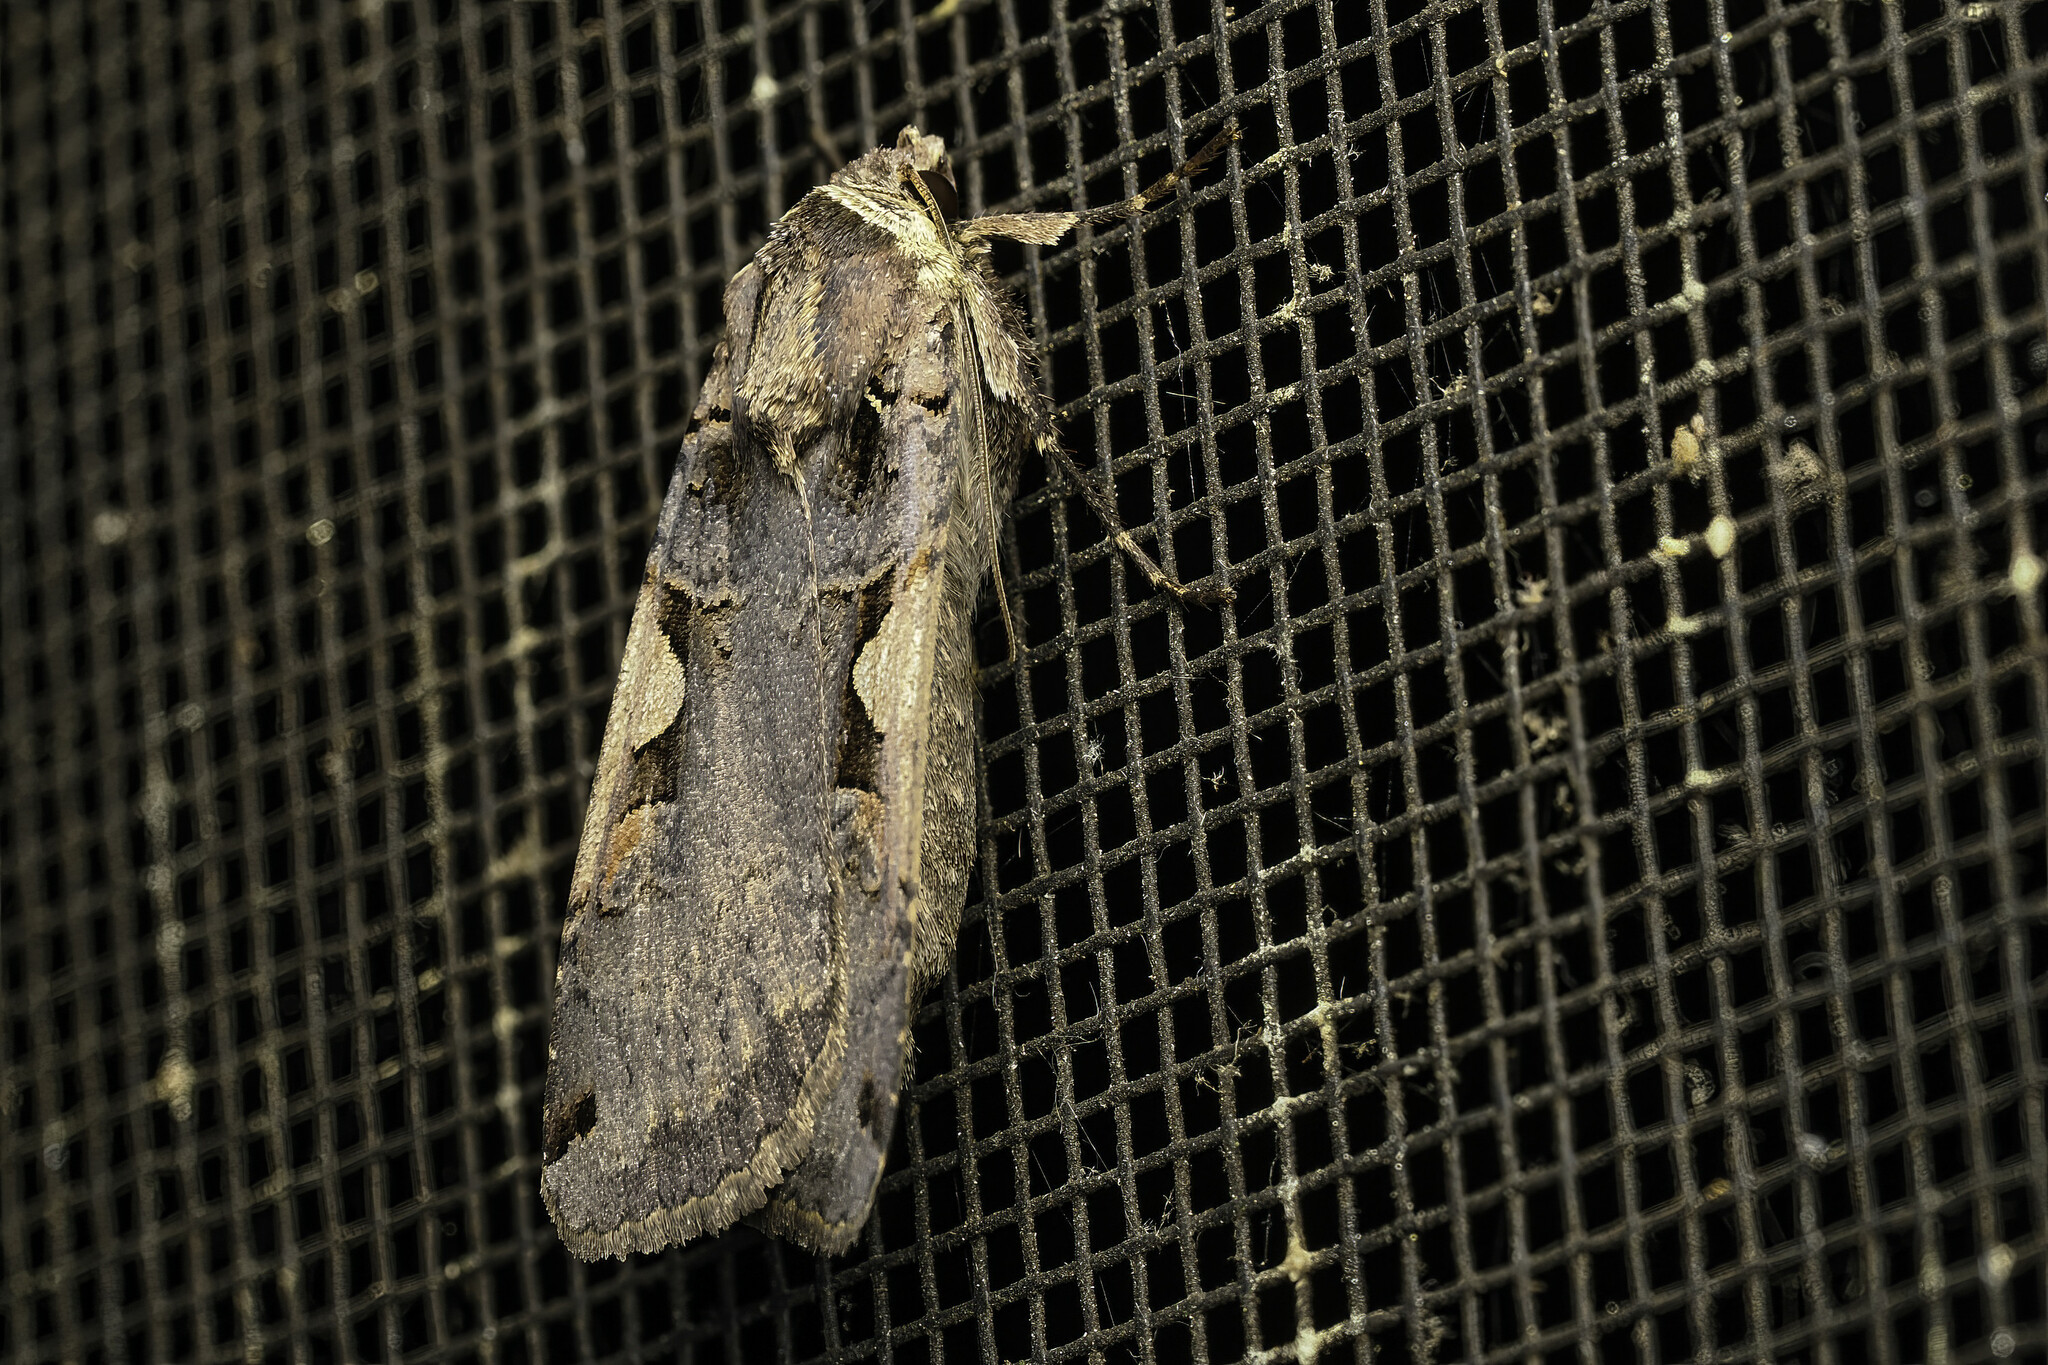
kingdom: Animalia
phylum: Arthropoda
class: Insecta
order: Lepidoptera
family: Noctuidae
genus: Xestia
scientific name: Xestia dolosa
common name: Cutworm moth
